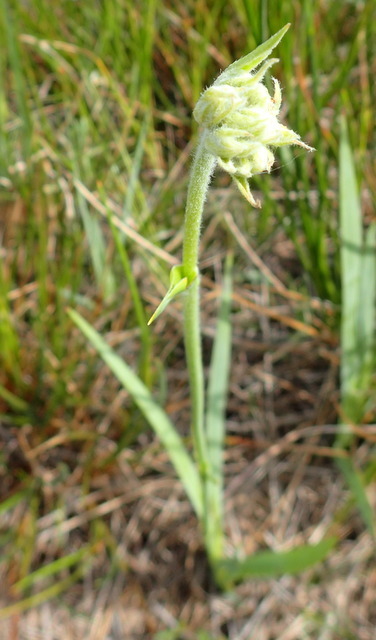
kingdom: Plantae
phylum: Tracheophyta
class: Liliopsida
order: Commelinales
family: Haemodoraceae
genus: Lachnanthes
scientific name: Lachnanthes caroliana
